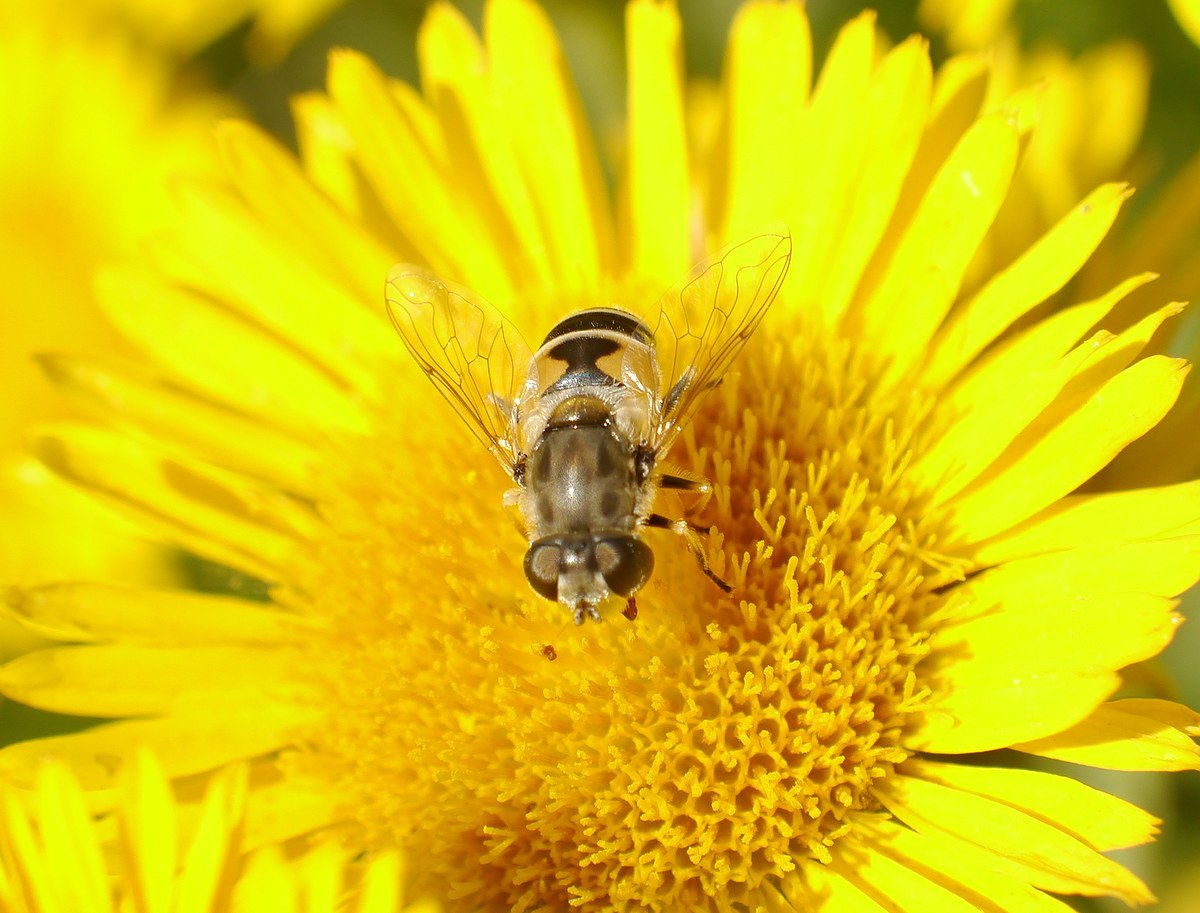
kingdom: Animalia
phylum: Arthropoda
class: Insecta
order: Diptera
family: Syrphidae
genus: Eristalis
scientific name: Eristalis arbustorum
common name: Hover fly
